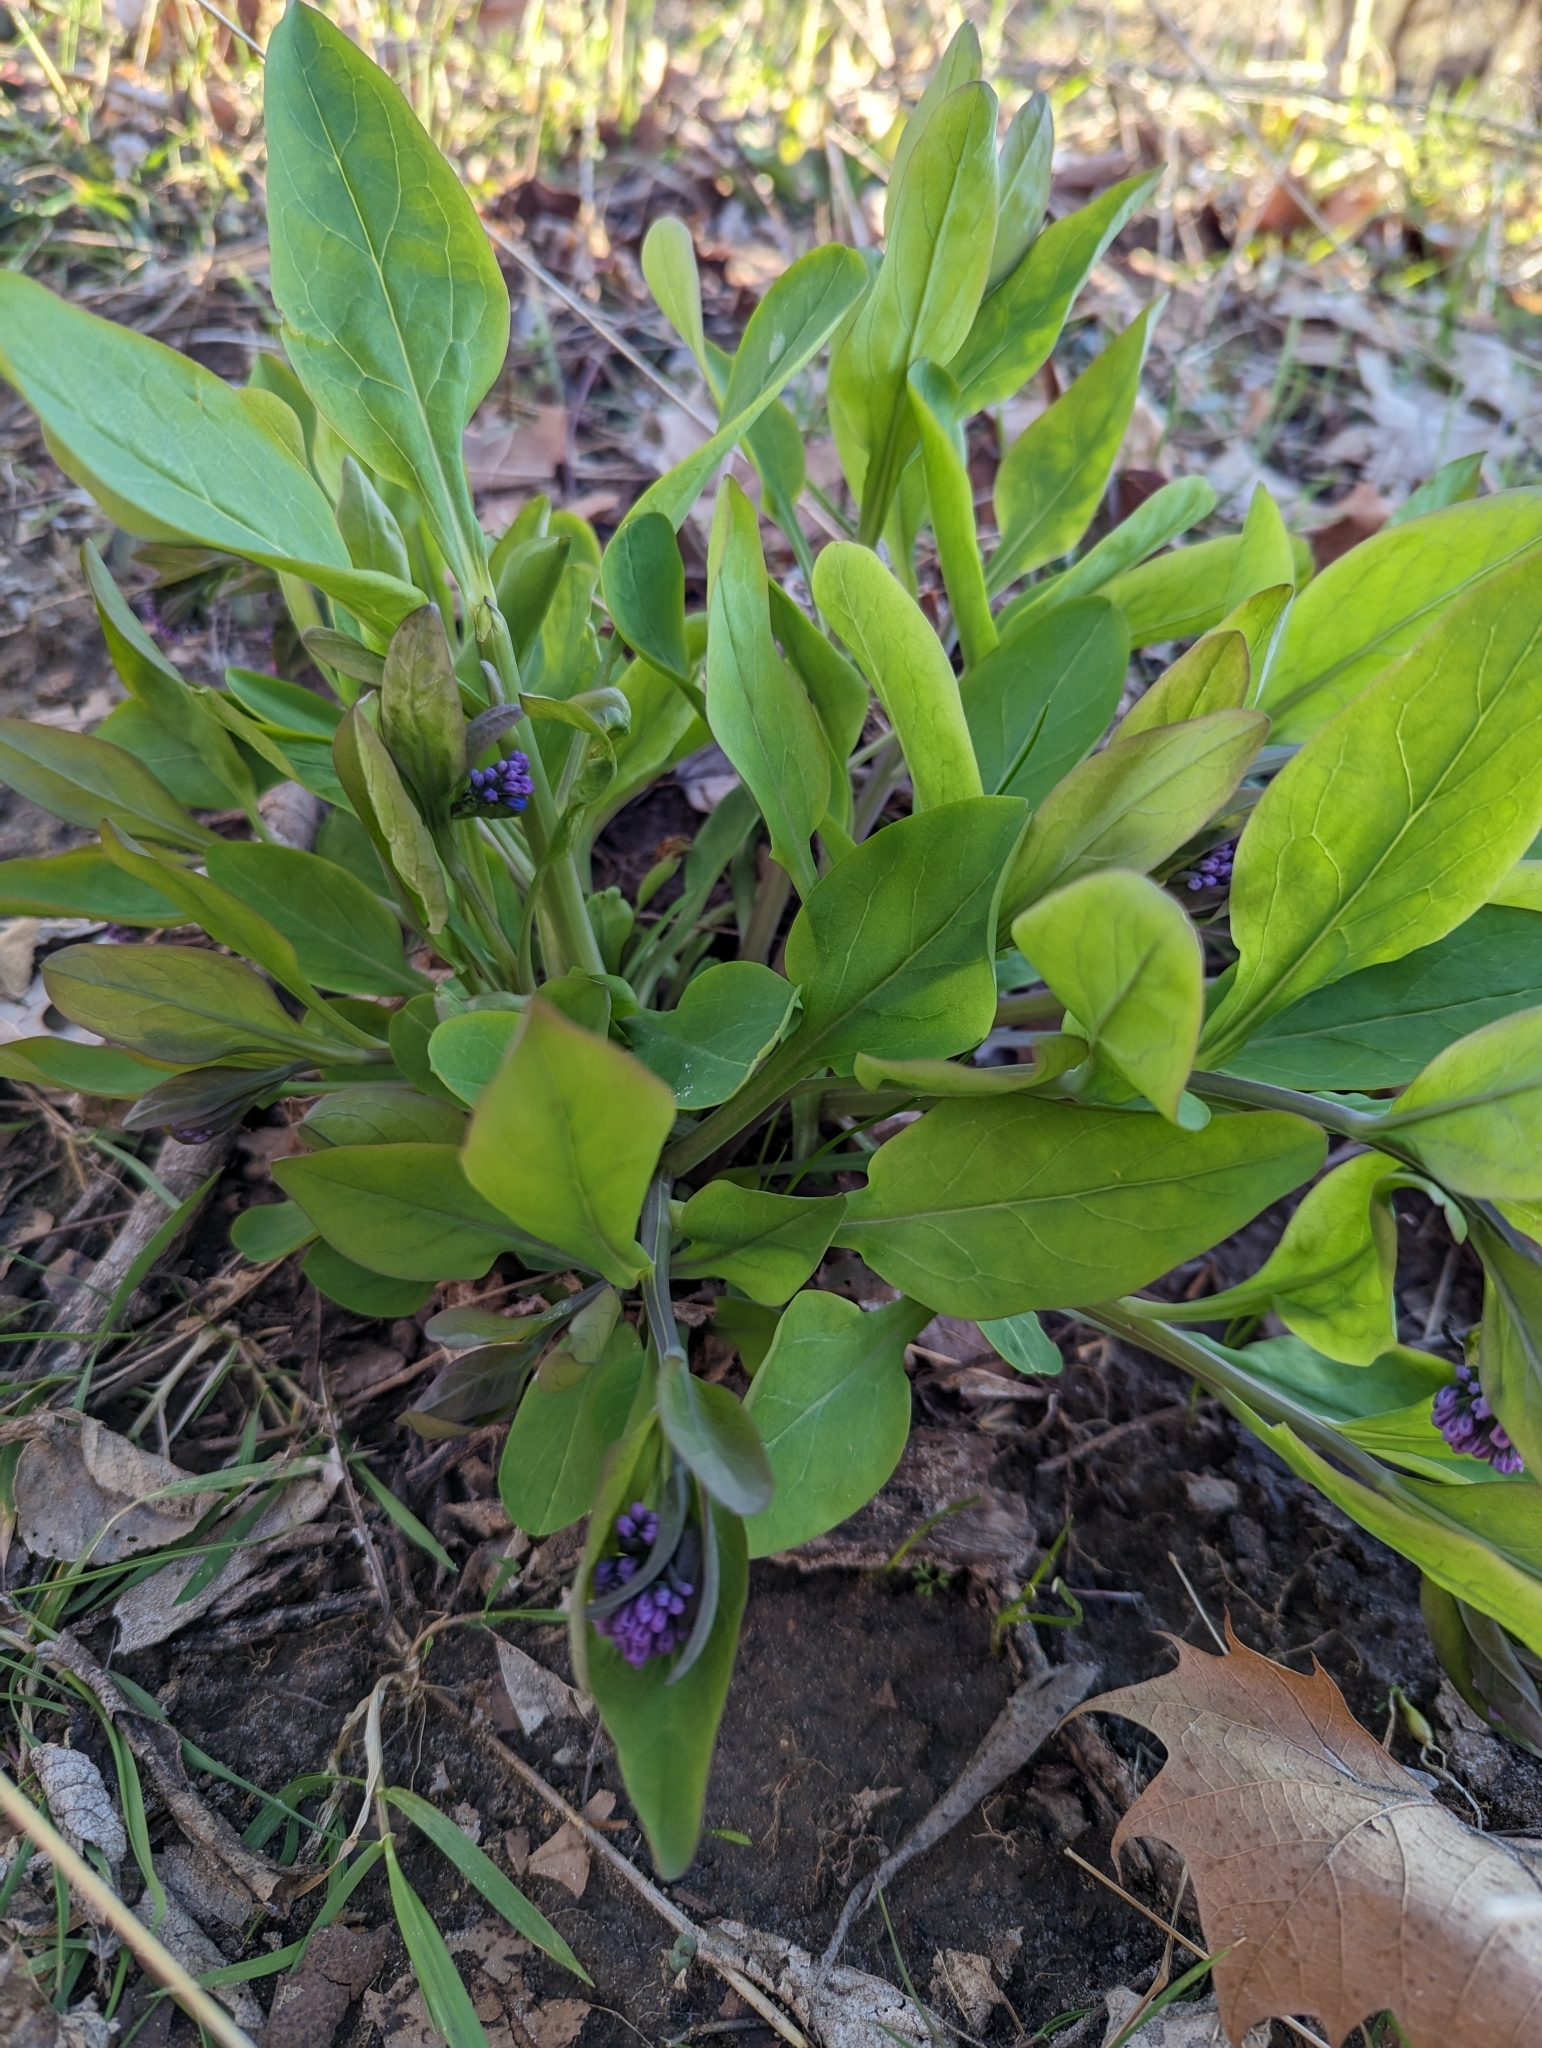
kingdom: Plantae
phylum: Tracheophyta
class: Magnoliopsida
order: Boraginales
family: Boraginaceae
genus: Mertensia
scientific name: Mertensia virginica
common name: Virginia bluebells
